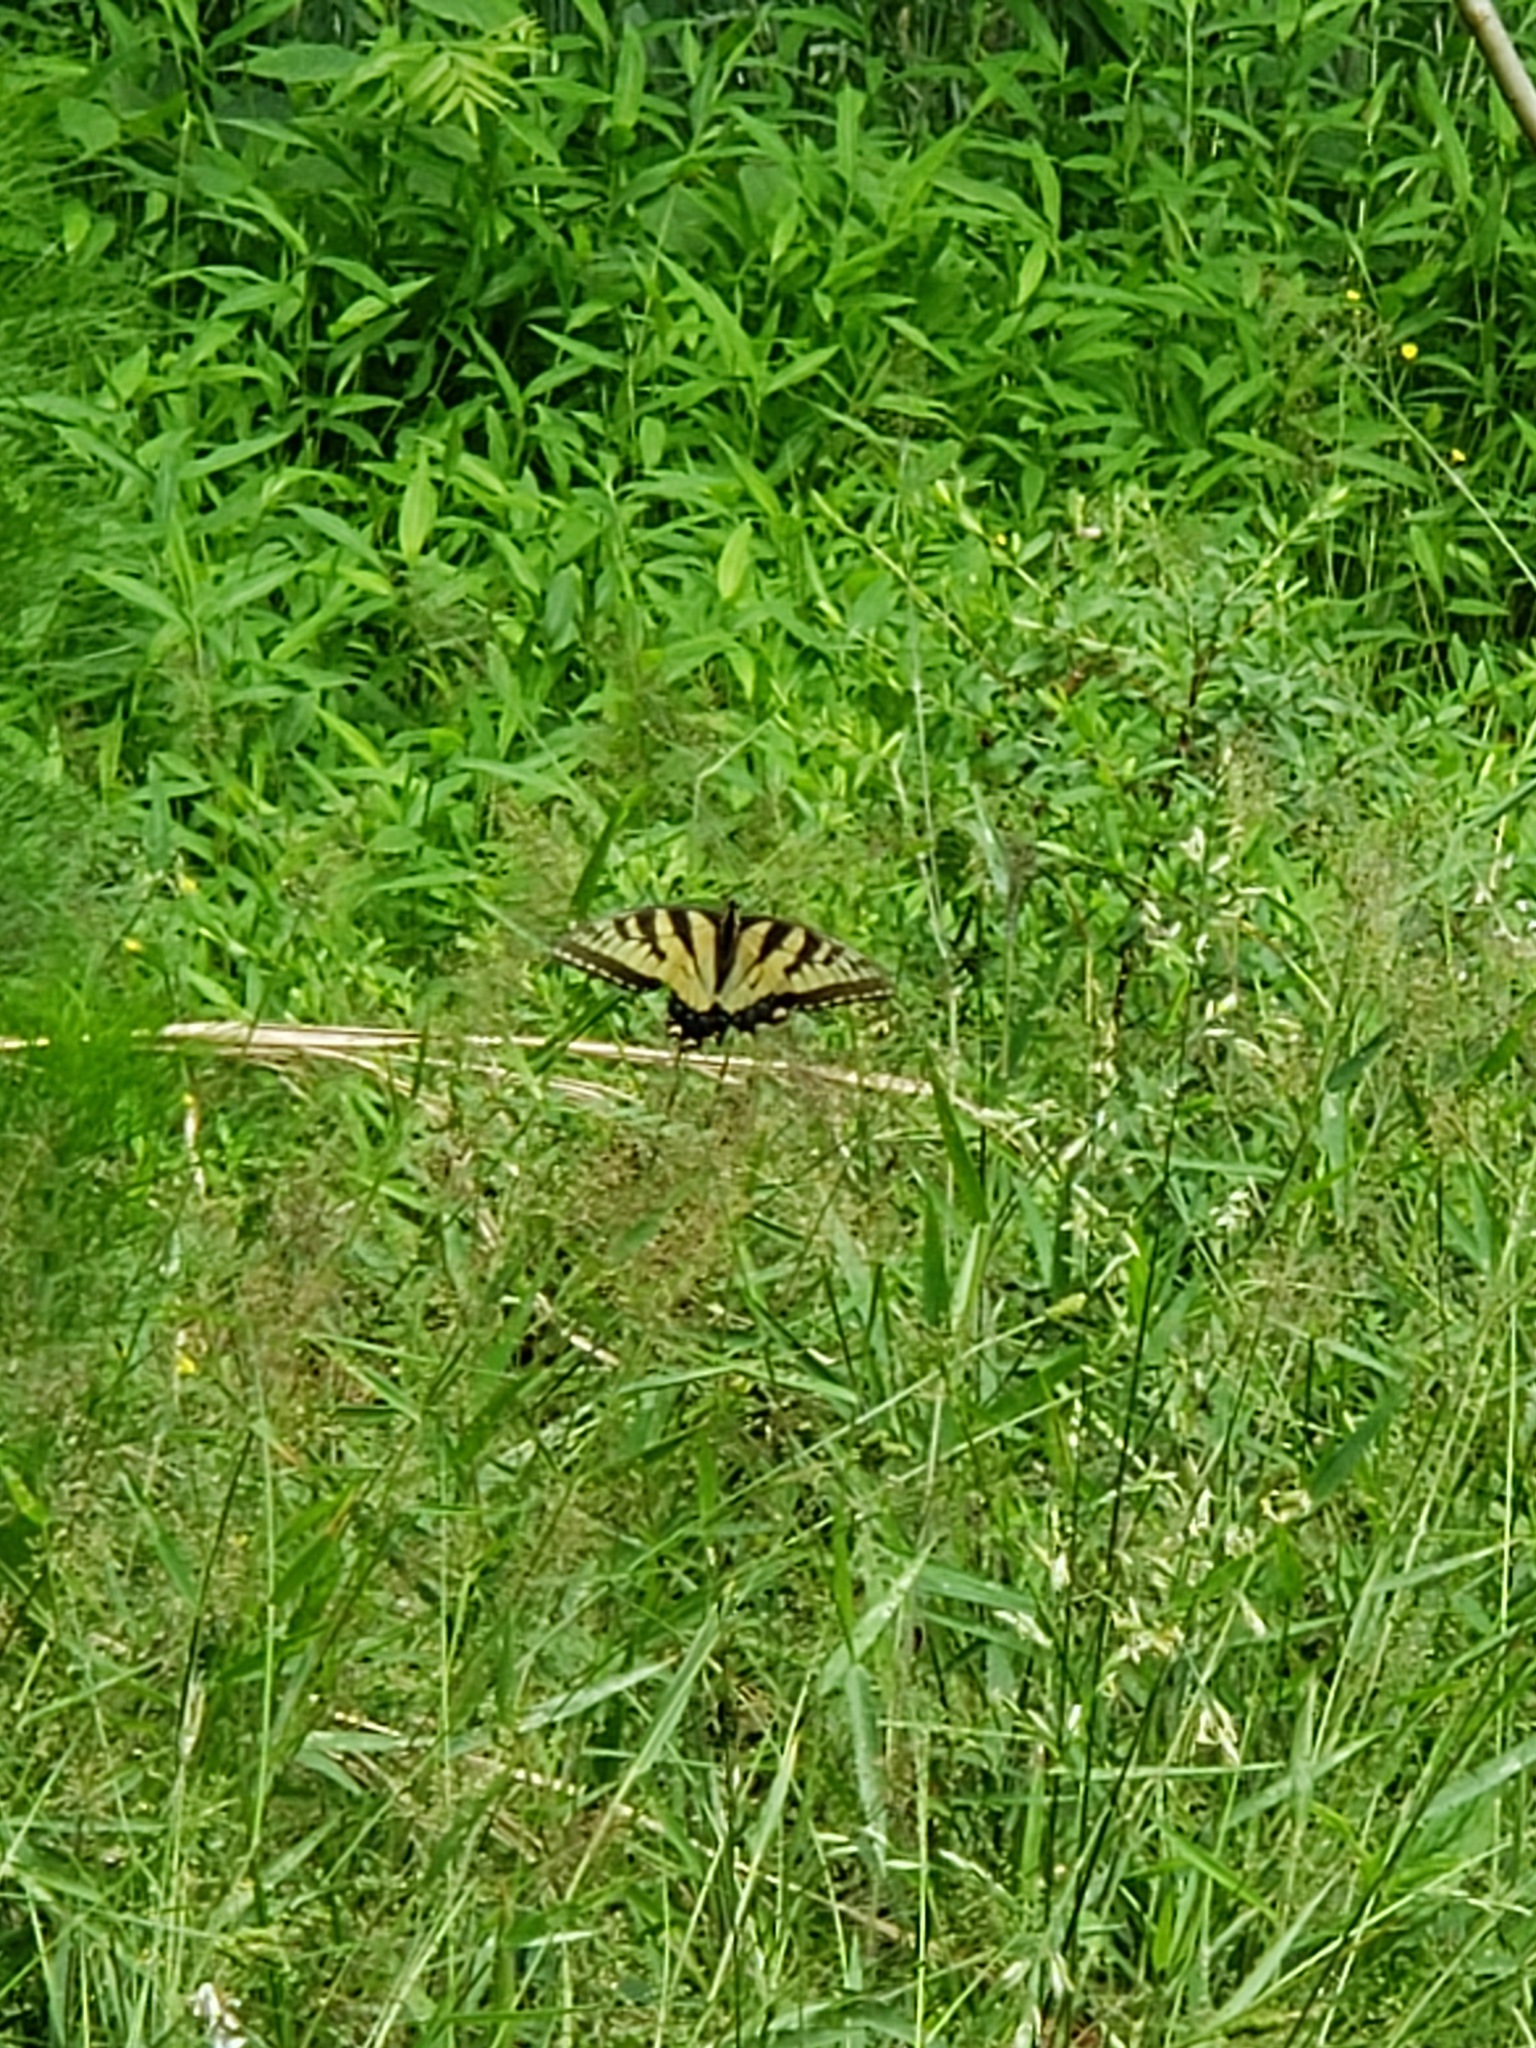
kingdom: Animalia
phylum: Arthropoda
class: Insecta
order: Lepidoptera
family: Papilionidae
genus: Papilio
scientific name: Papilio glaucus
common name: Tiger swallowtail
